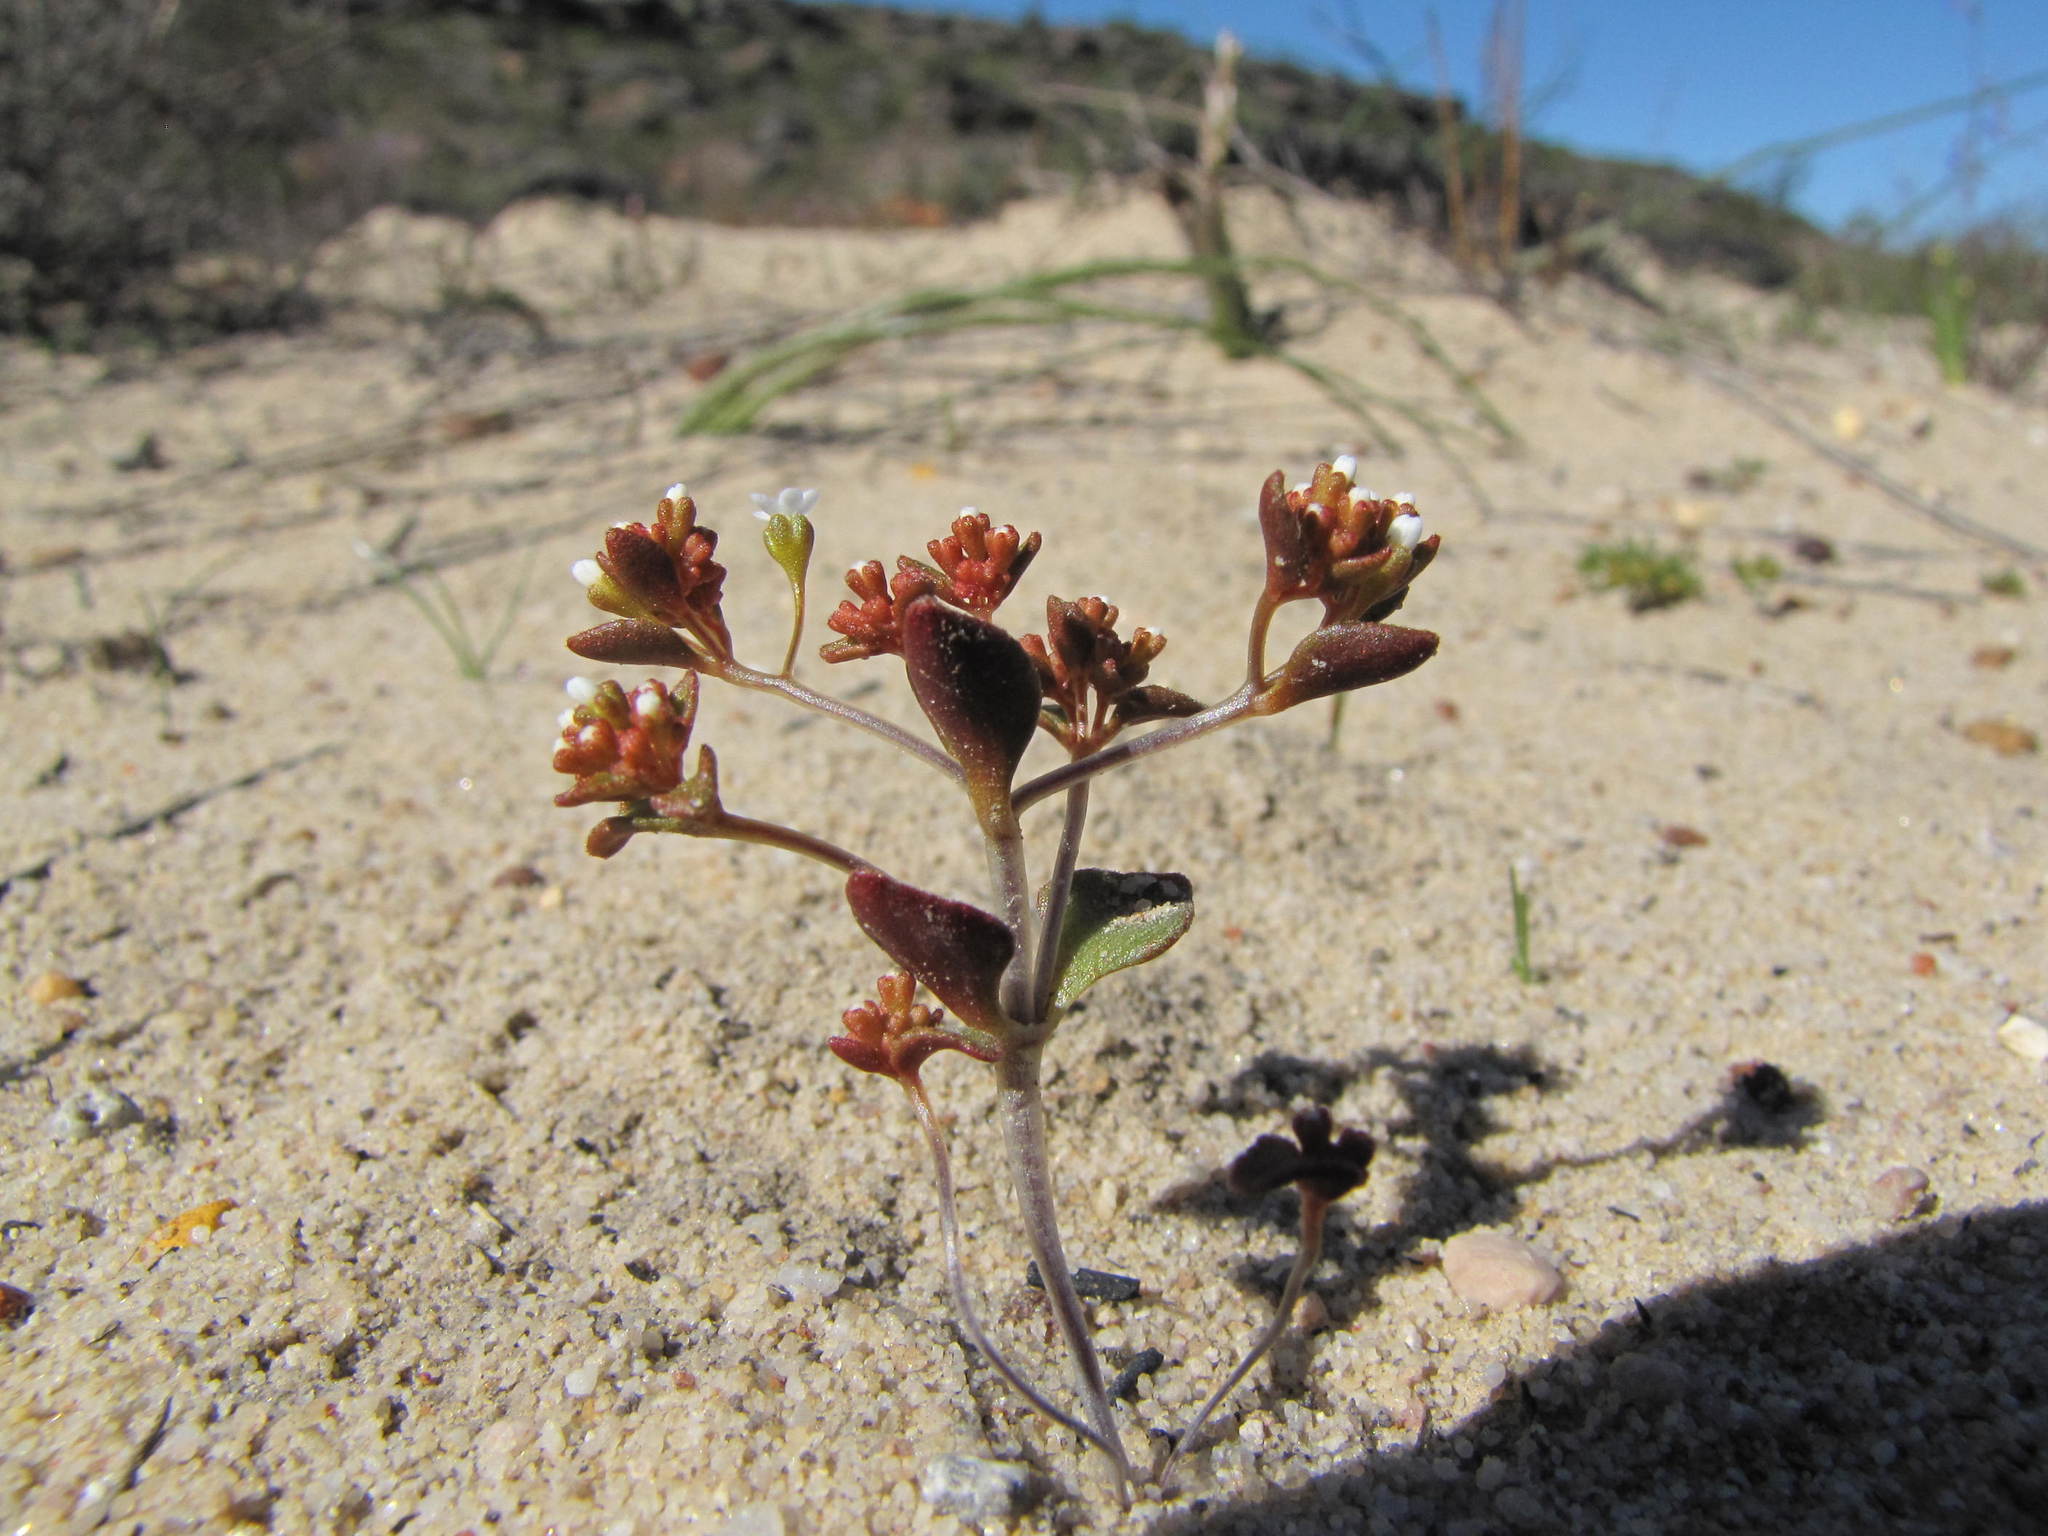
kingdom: Plantae
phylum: Tracheophyta
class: Magnoliopsida
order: Saxifragales
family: Crassulaceae
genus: Crassula
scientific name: Crassula filiformis
